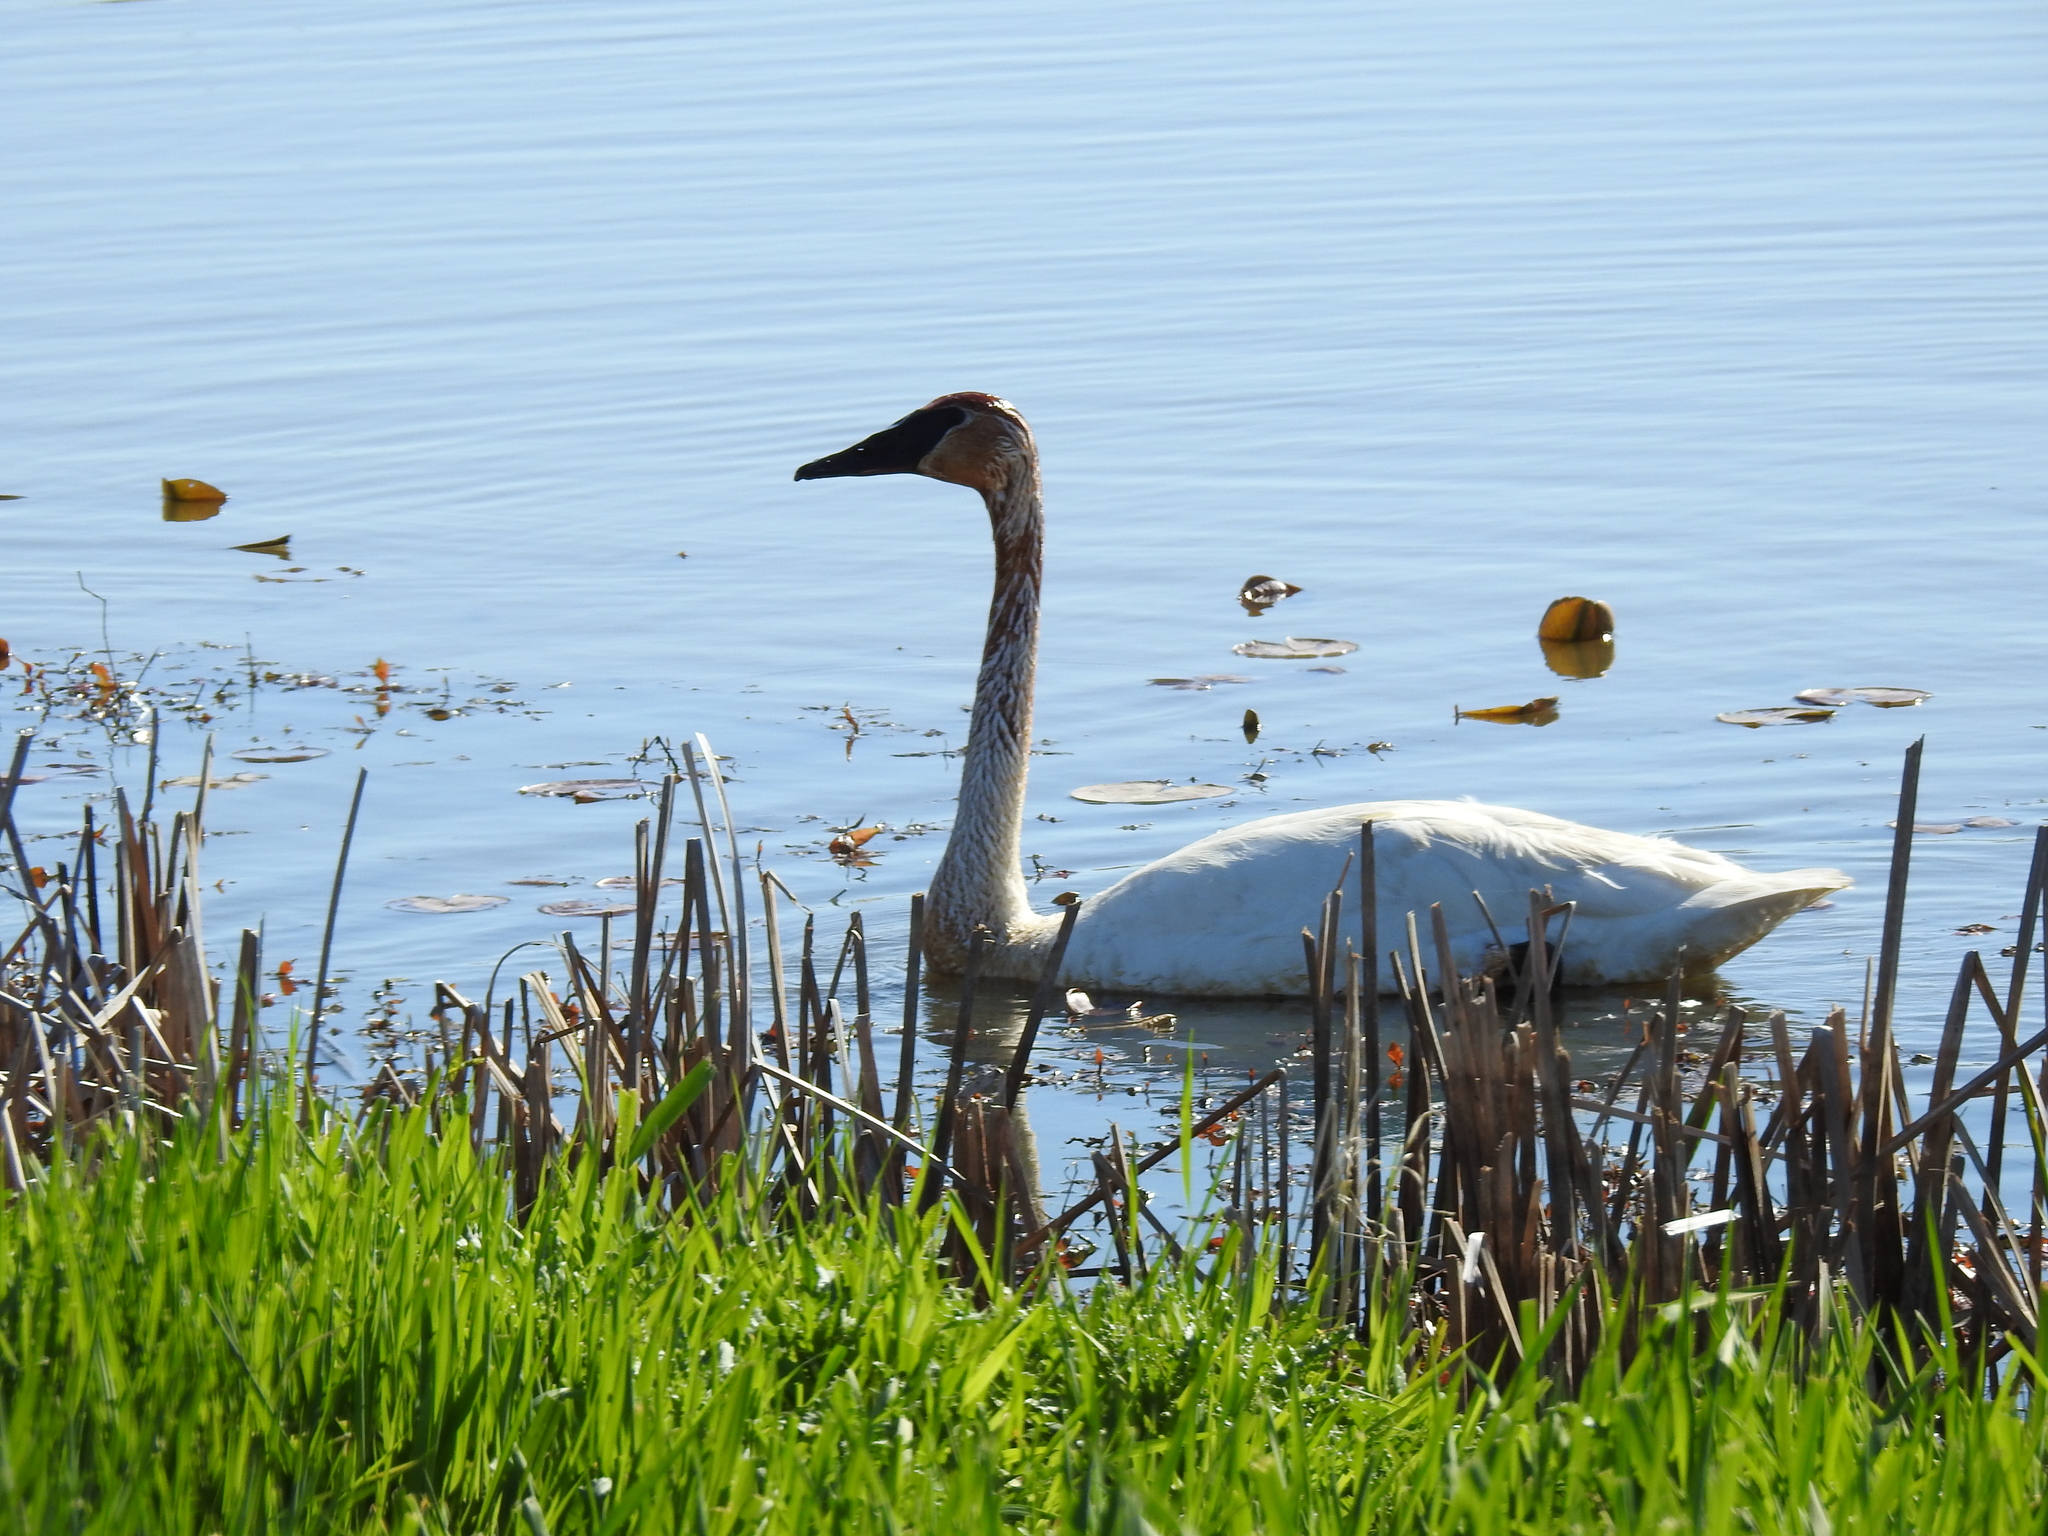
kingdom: Animalia
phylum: Chordata
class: Aves
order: Anseriformes
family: Anatidae
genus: Cygnus
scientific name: Cygnus buccinator
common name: Trumpeter swan
